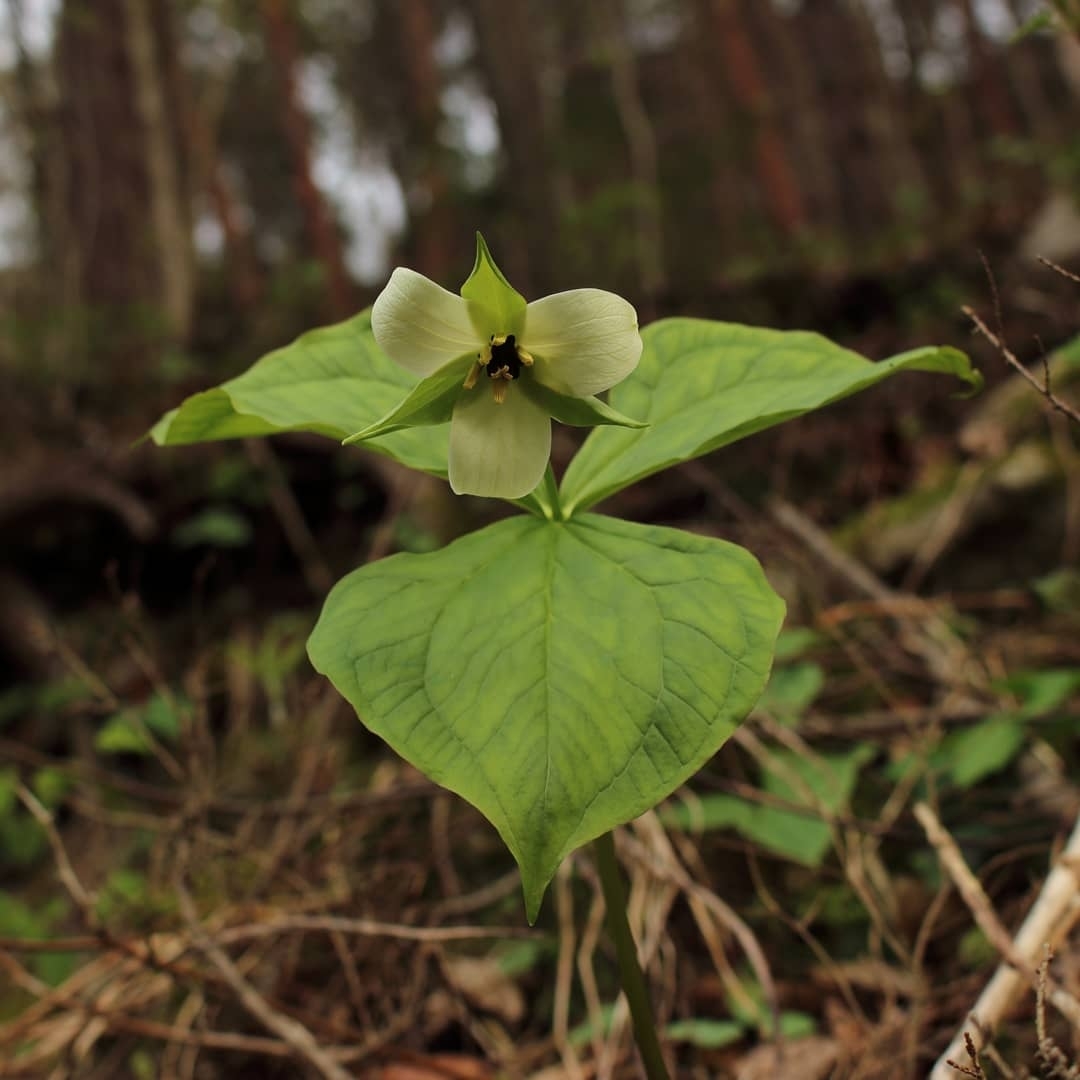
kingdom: Plantae
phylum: Tracheophyta
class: Liliopsida
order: Liliales
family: Melanthiaceae
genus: Trillium
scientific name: Trillium erectum
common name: Purple trillium
